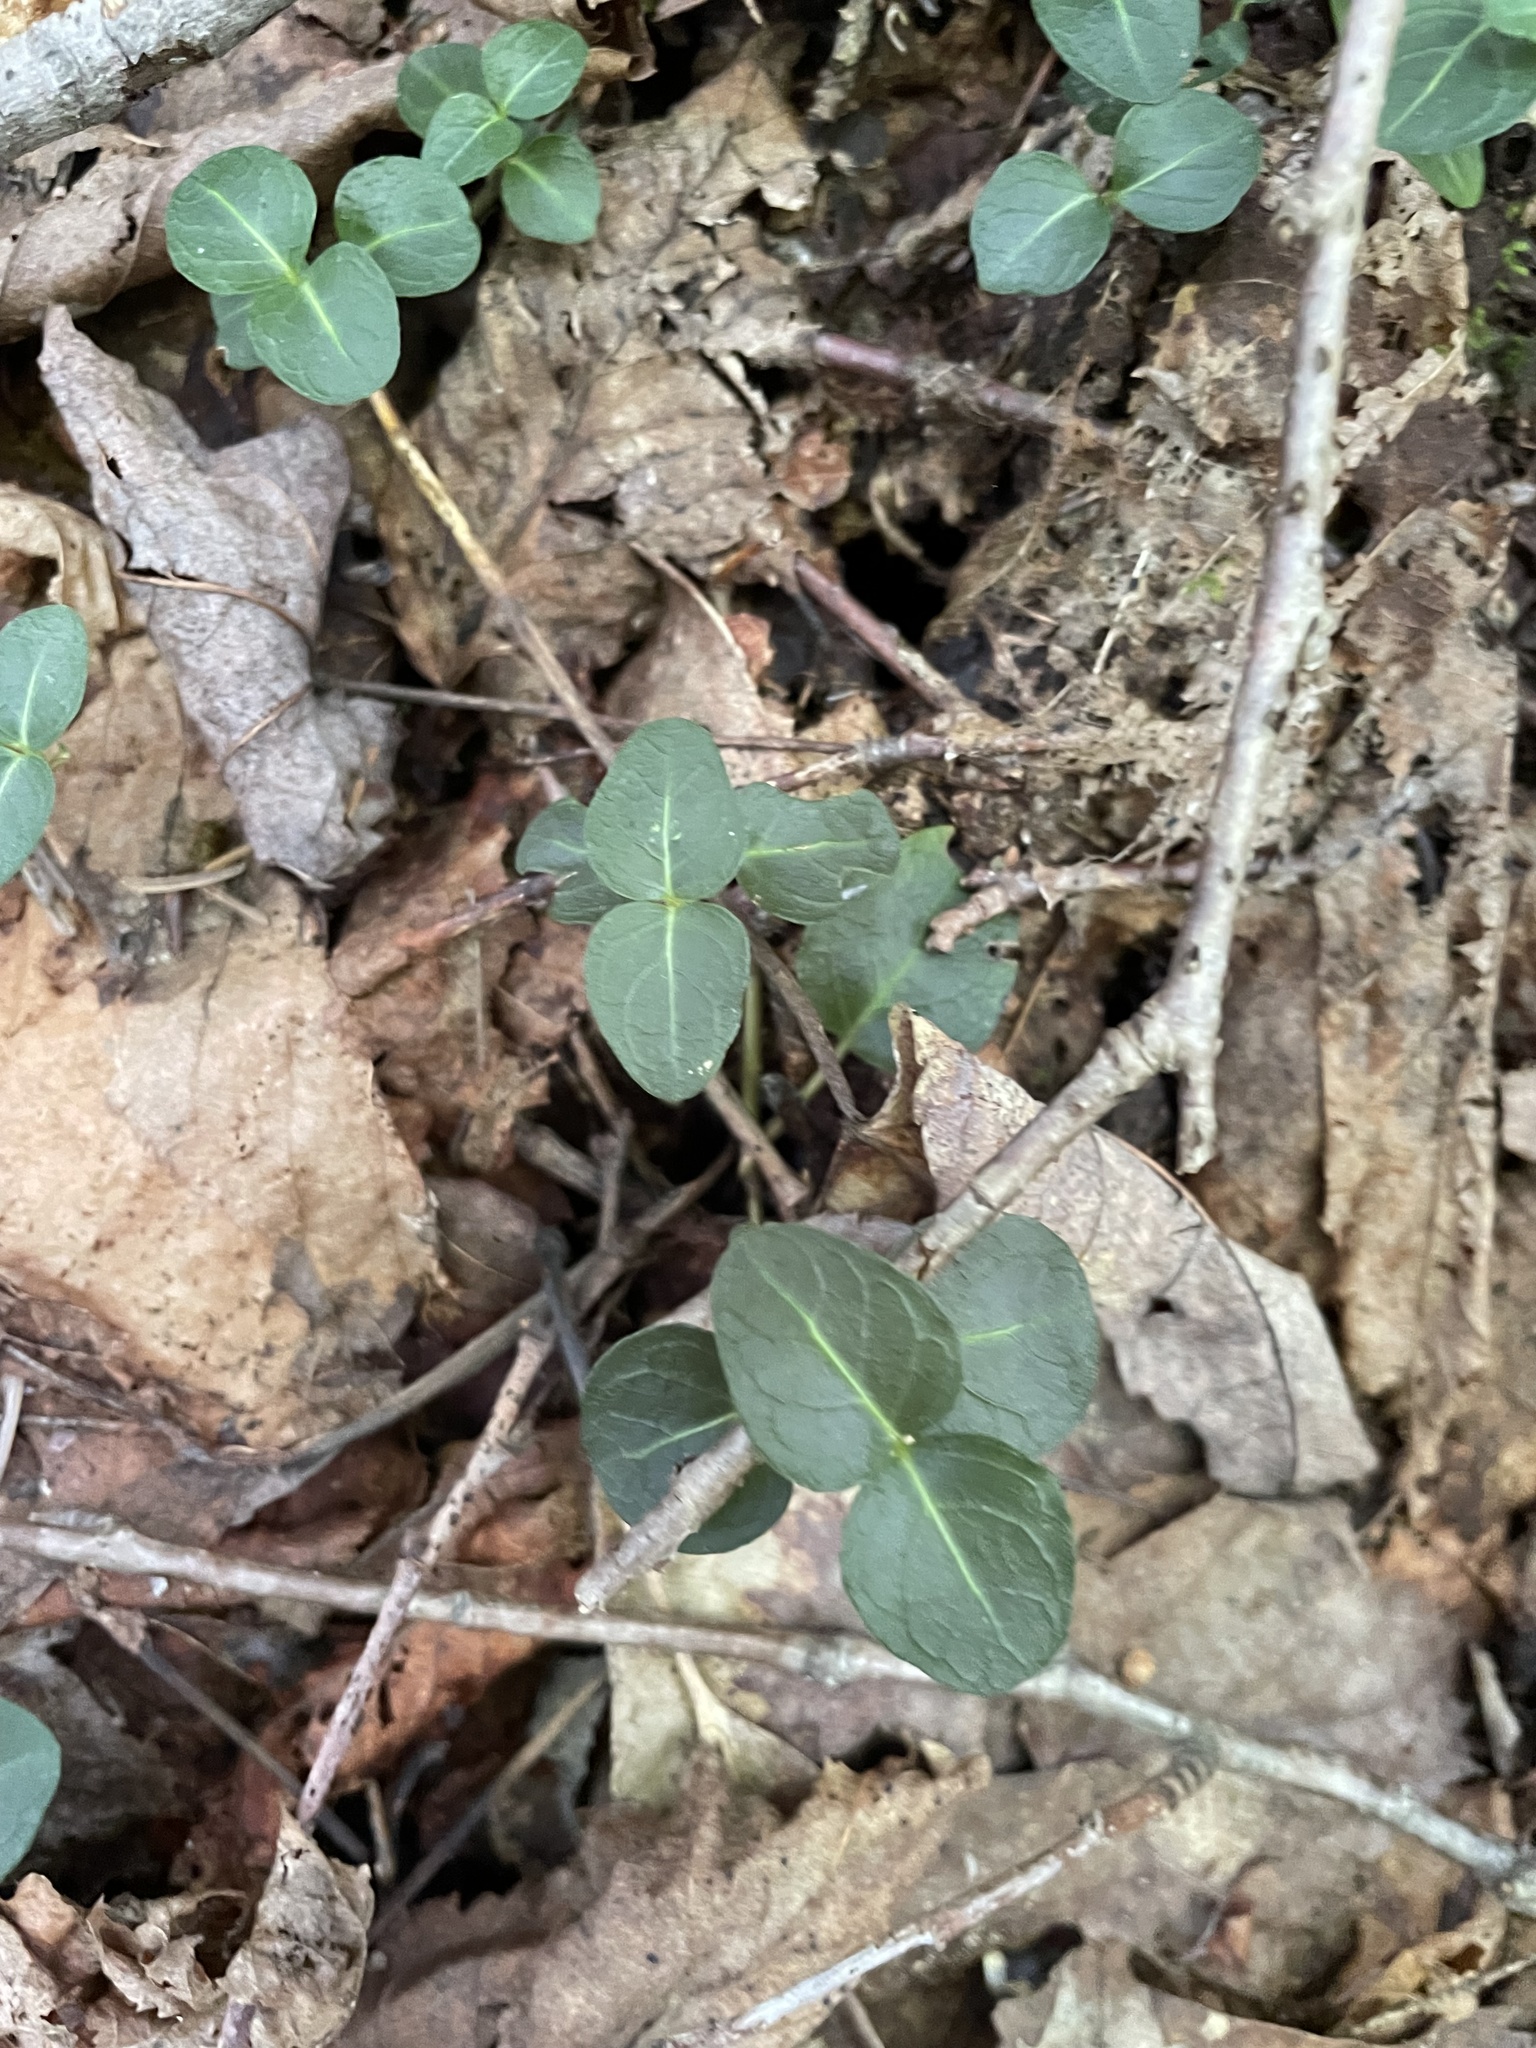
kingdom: Plantae
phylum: Tracheophyta
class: Magnoliopsida
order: Gentianales
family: Rubiaceae
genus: Mitchella
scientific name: Mitchella repens
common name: Partridge-berry
